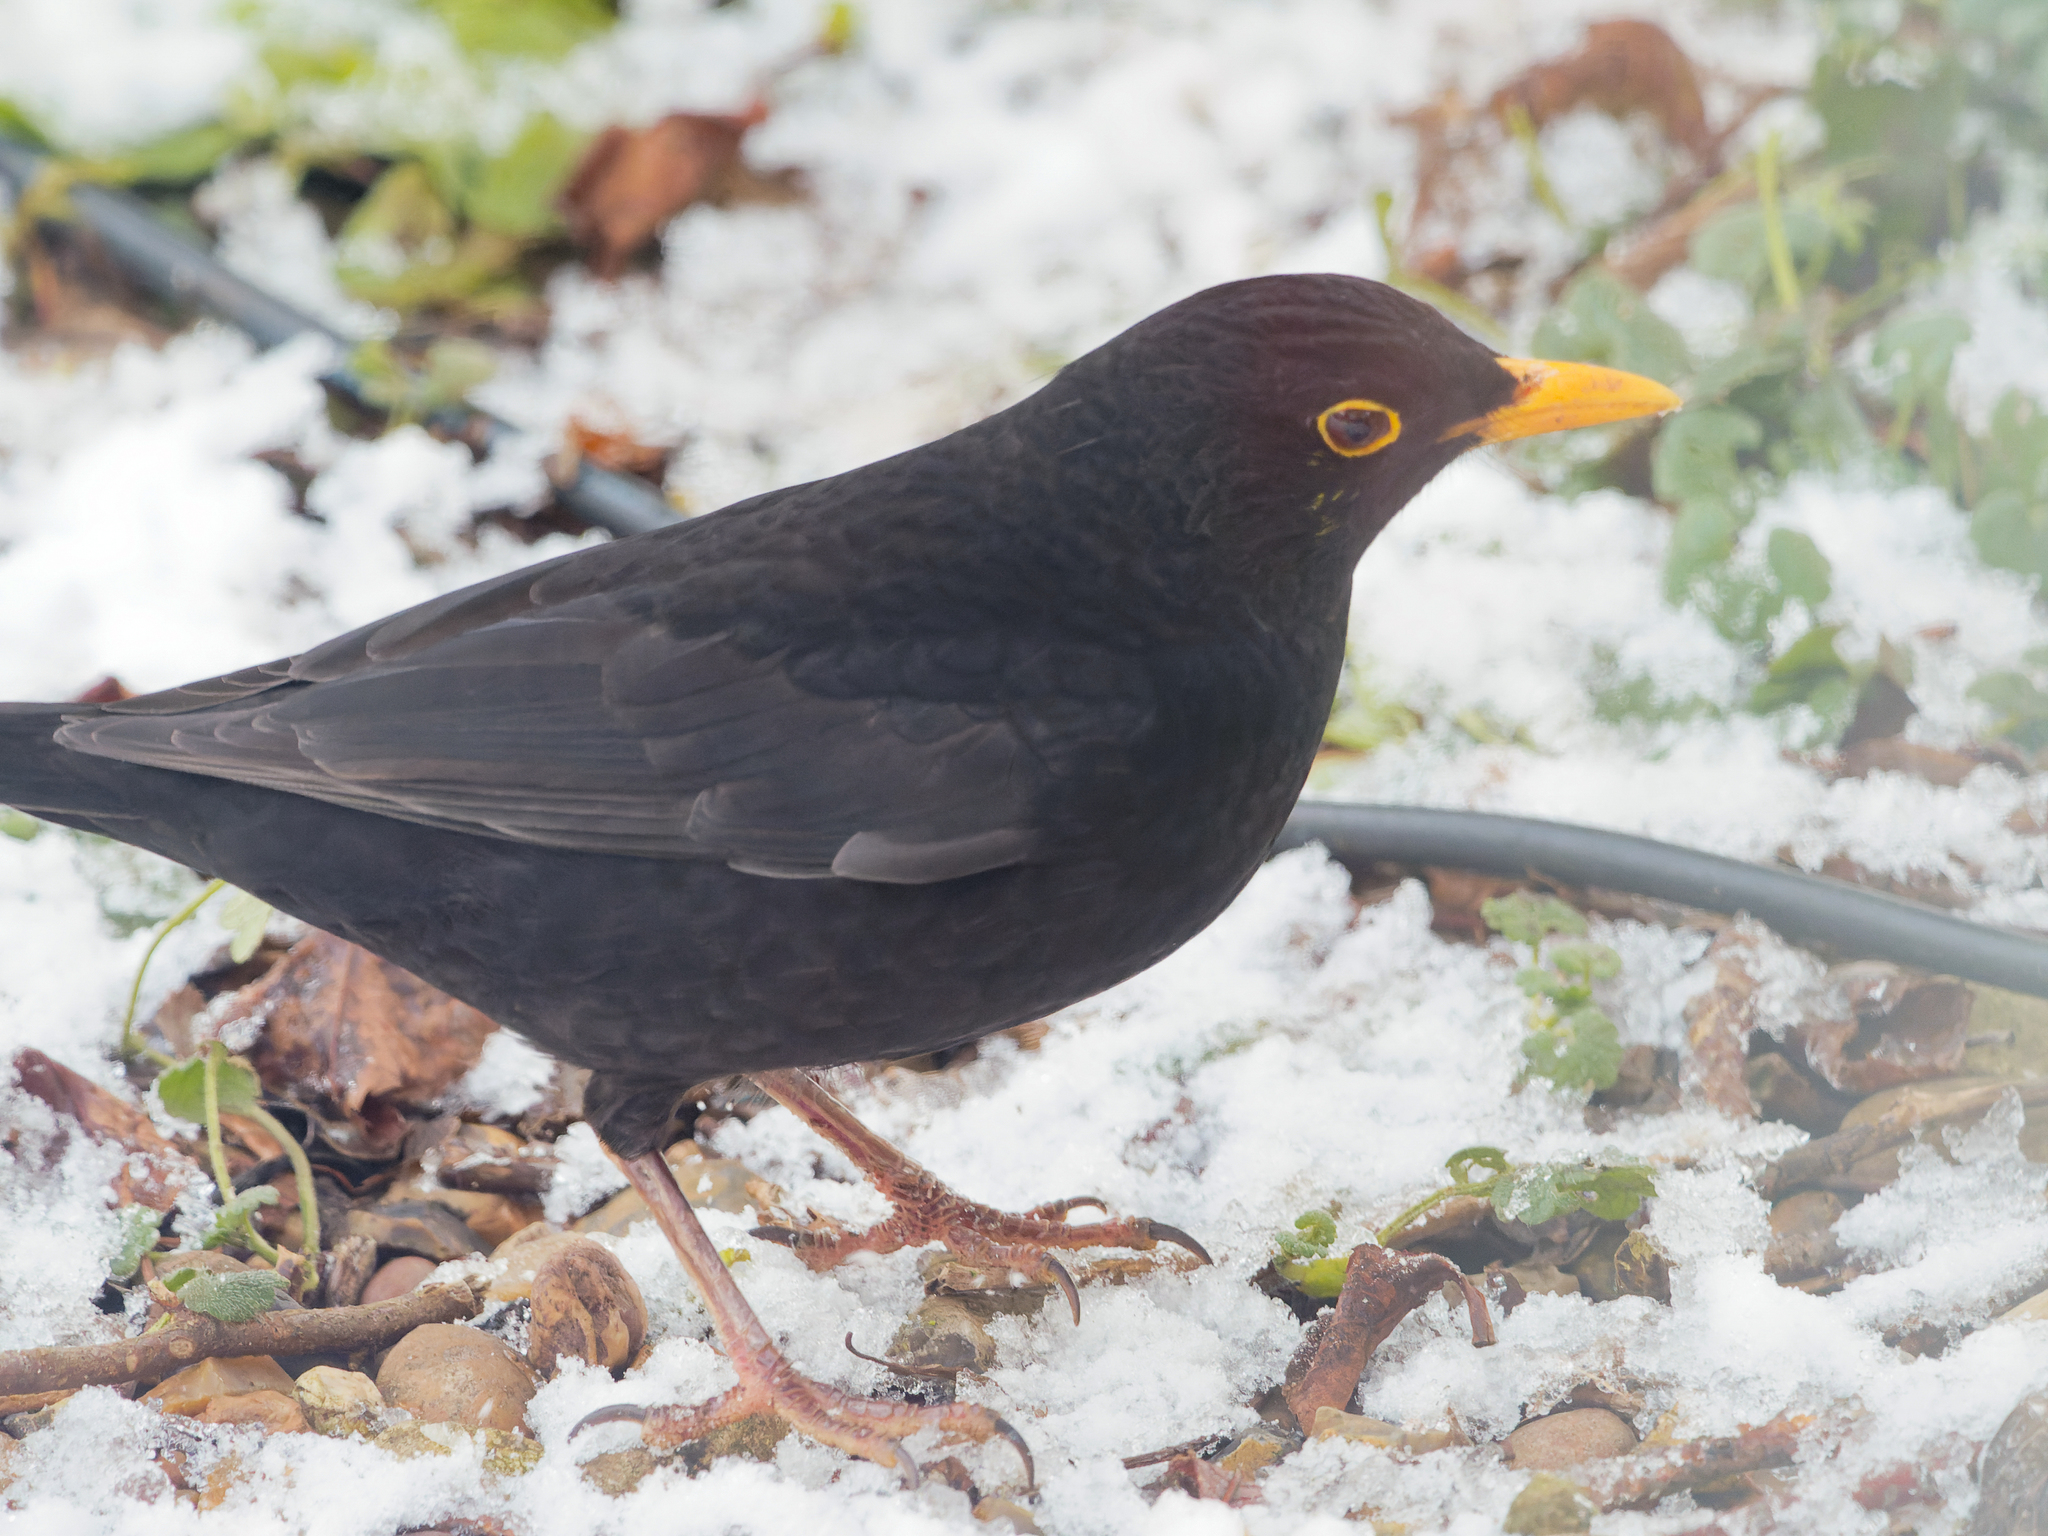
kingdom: Animalia
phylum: Chordata
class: Aves
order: Passeriformes
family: Turdidae
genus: Turdus
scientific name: Turdus merula
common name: Common blackbird
